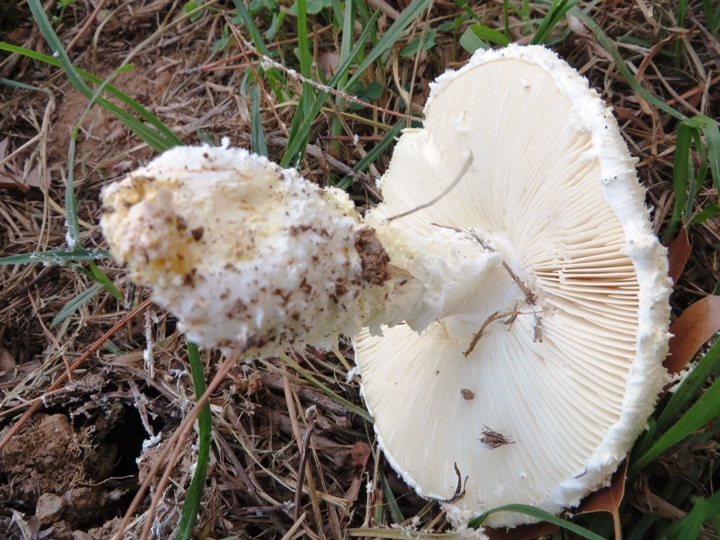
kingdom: Fungi
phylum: Basidiomycota
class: Agaricomycetes
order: Agaricales
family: Amanitaceae
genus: Amanita
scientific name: Amanita foetidissima
